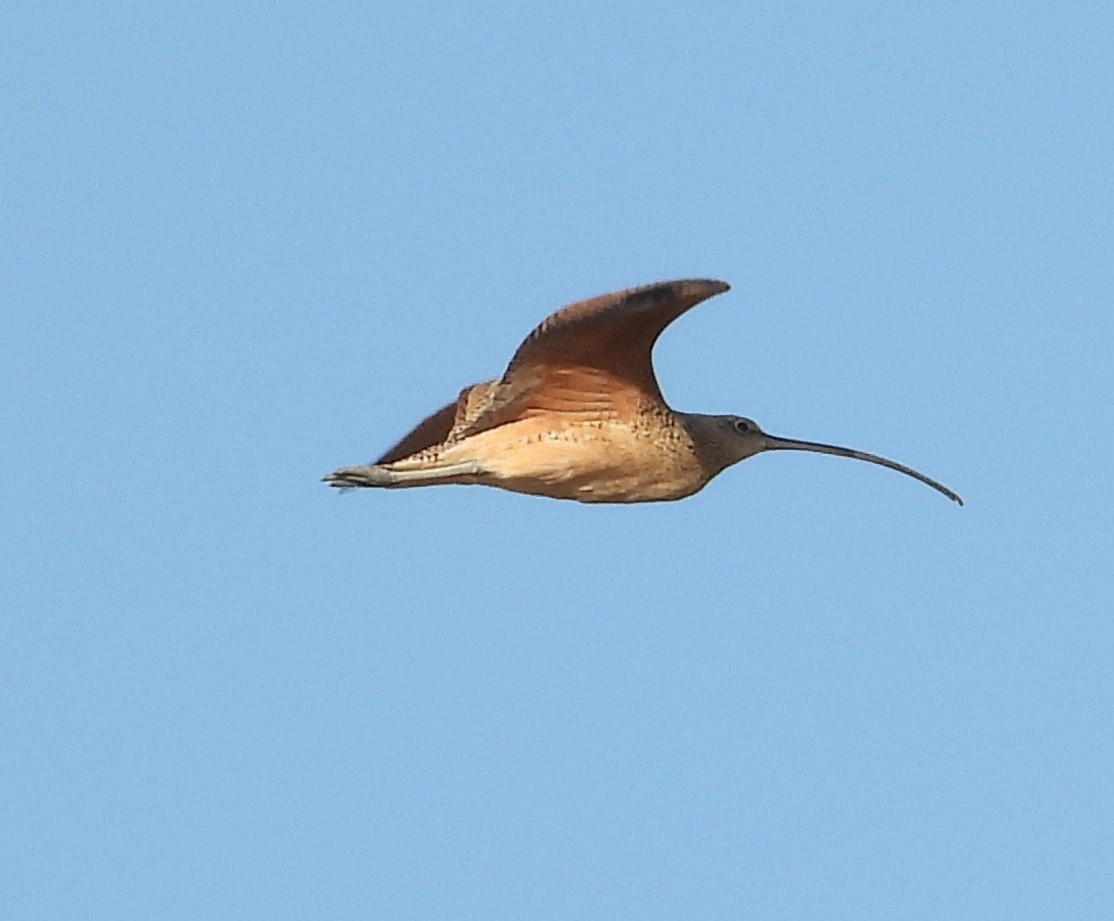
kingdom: Animalia
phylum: Chordata
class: Aves
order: Charadriiformes
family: Scolopacidae
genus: Numenius
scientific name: Numenius americanus
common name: Long-billed curlew
